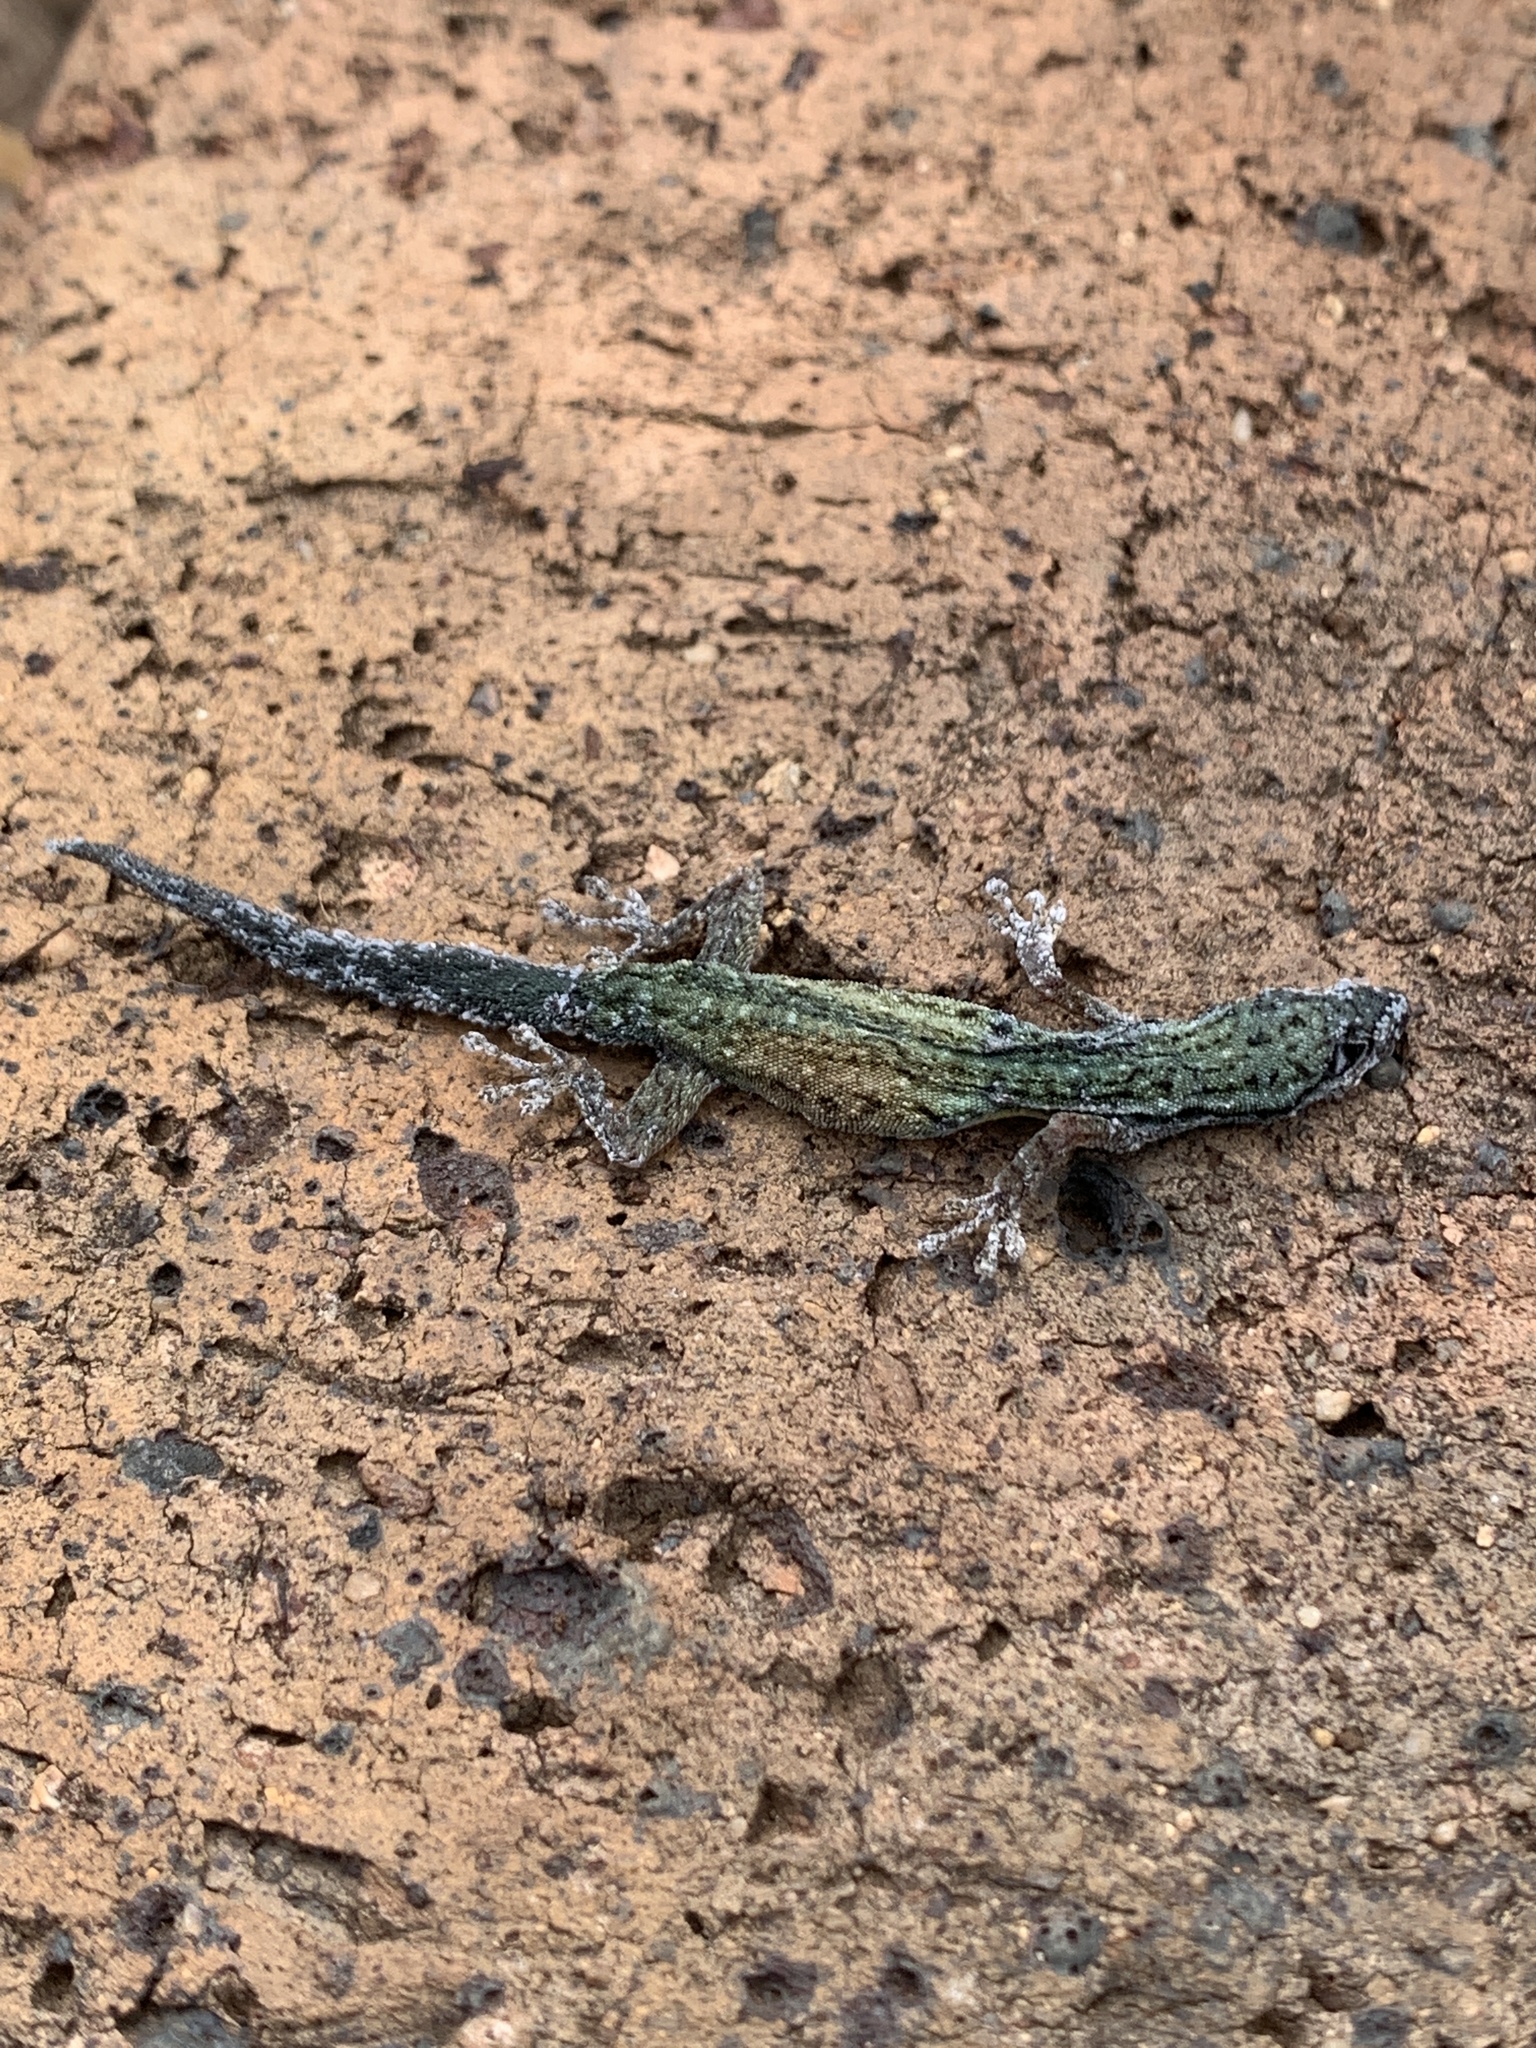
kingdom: Animalia
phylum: Chordata
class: Squamata
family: Gekkonidae
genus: Lygodactylus
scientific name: Lygodactylus capensis
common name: Cape dwarf gecko
